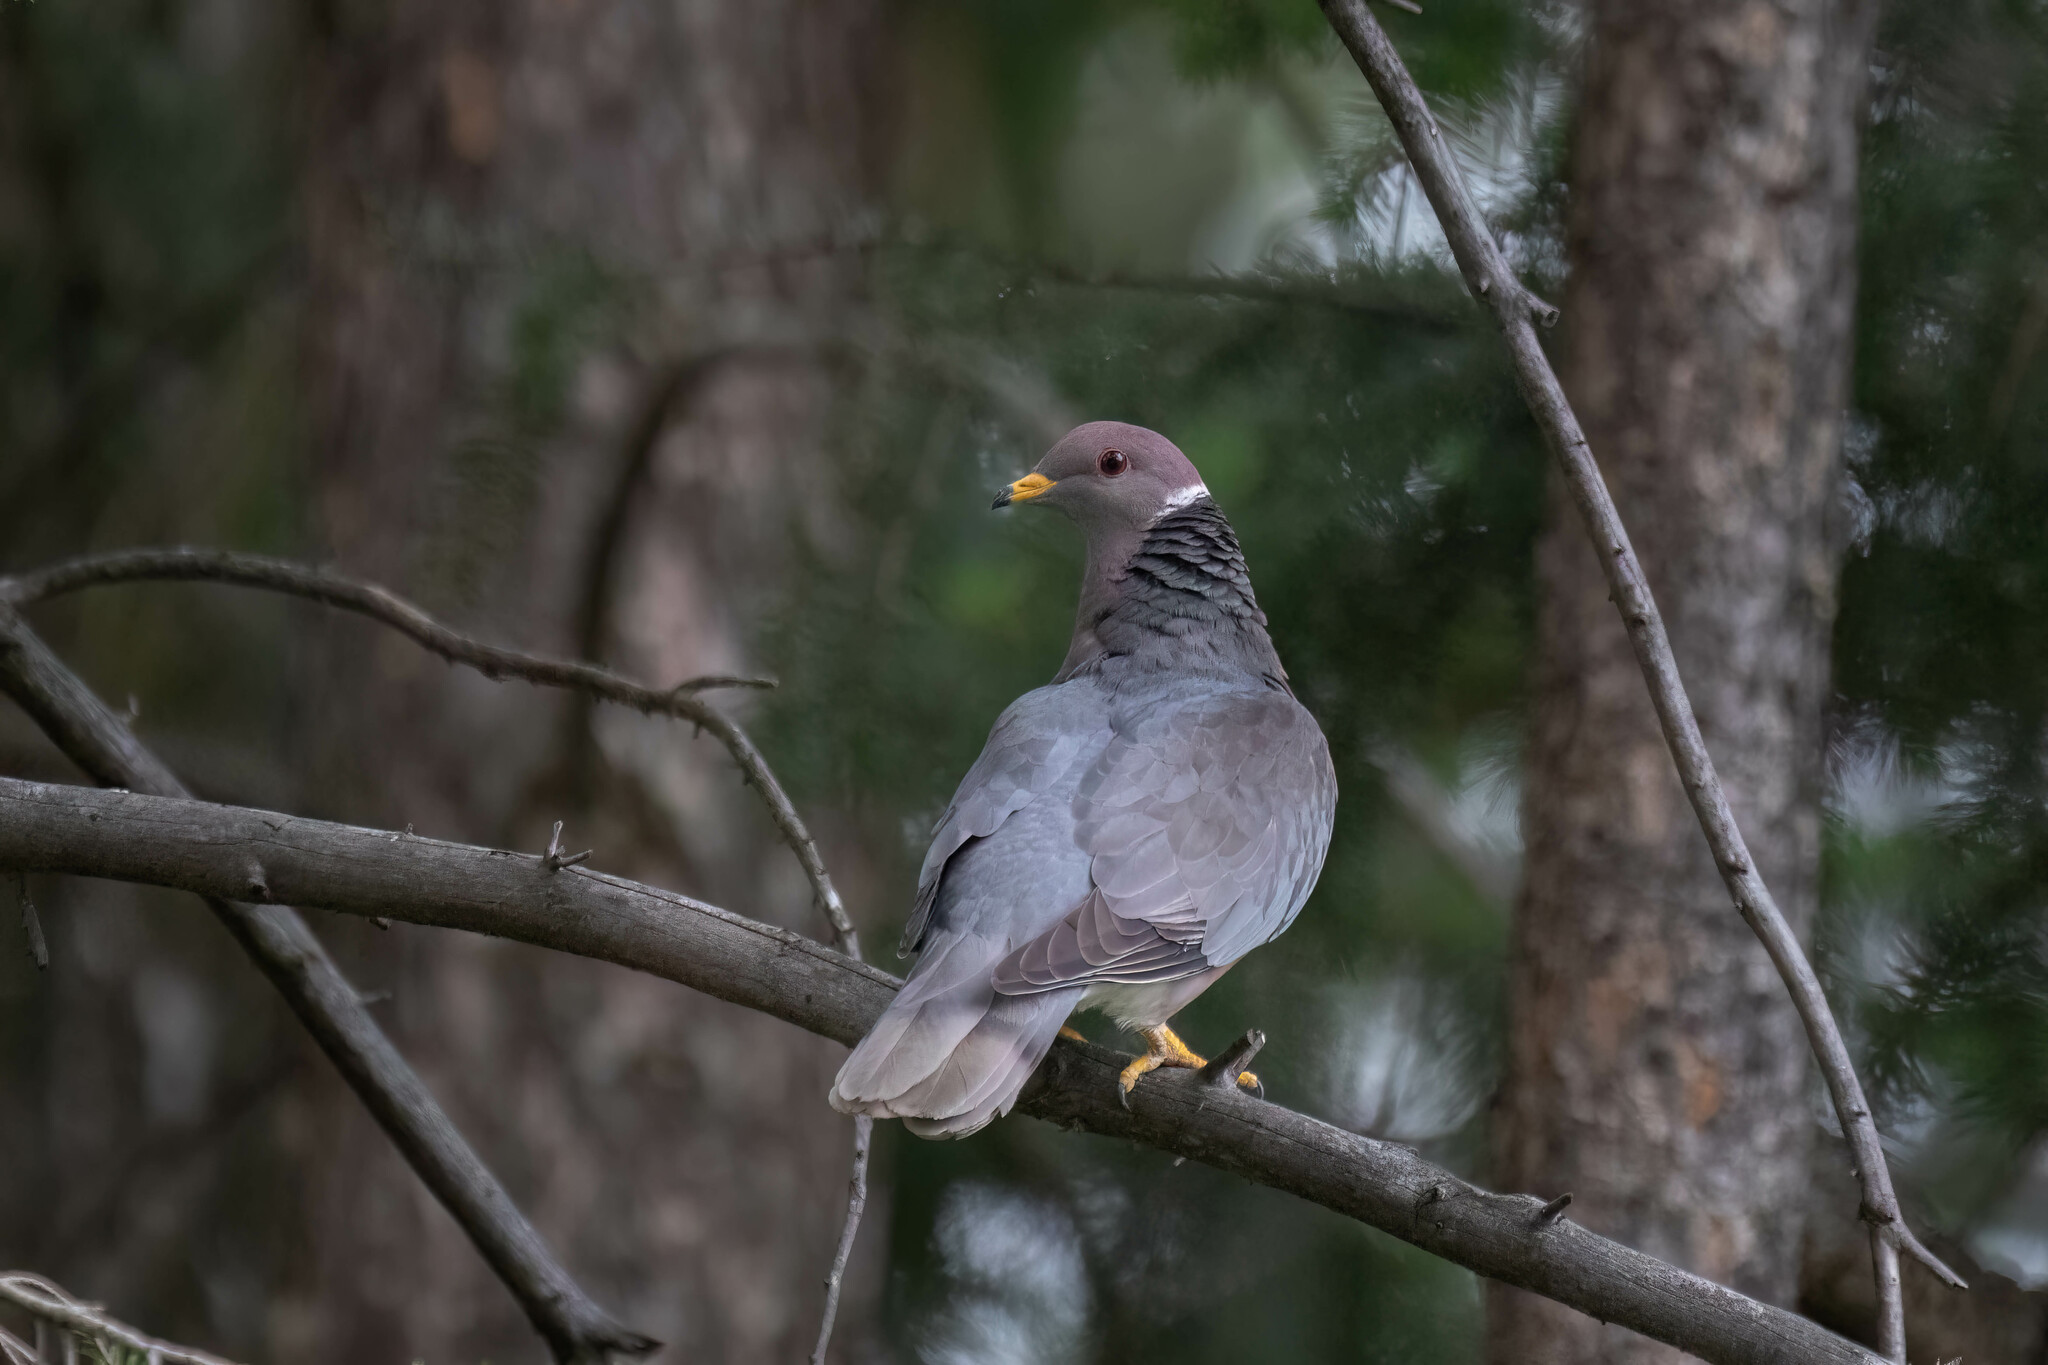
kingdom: Animalia
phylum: Chordata
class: Aves
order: Columbiformes
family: Columbidae
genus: Patagioenas
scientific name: Patagioenas fasciata
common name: Band-tailed pigeon
